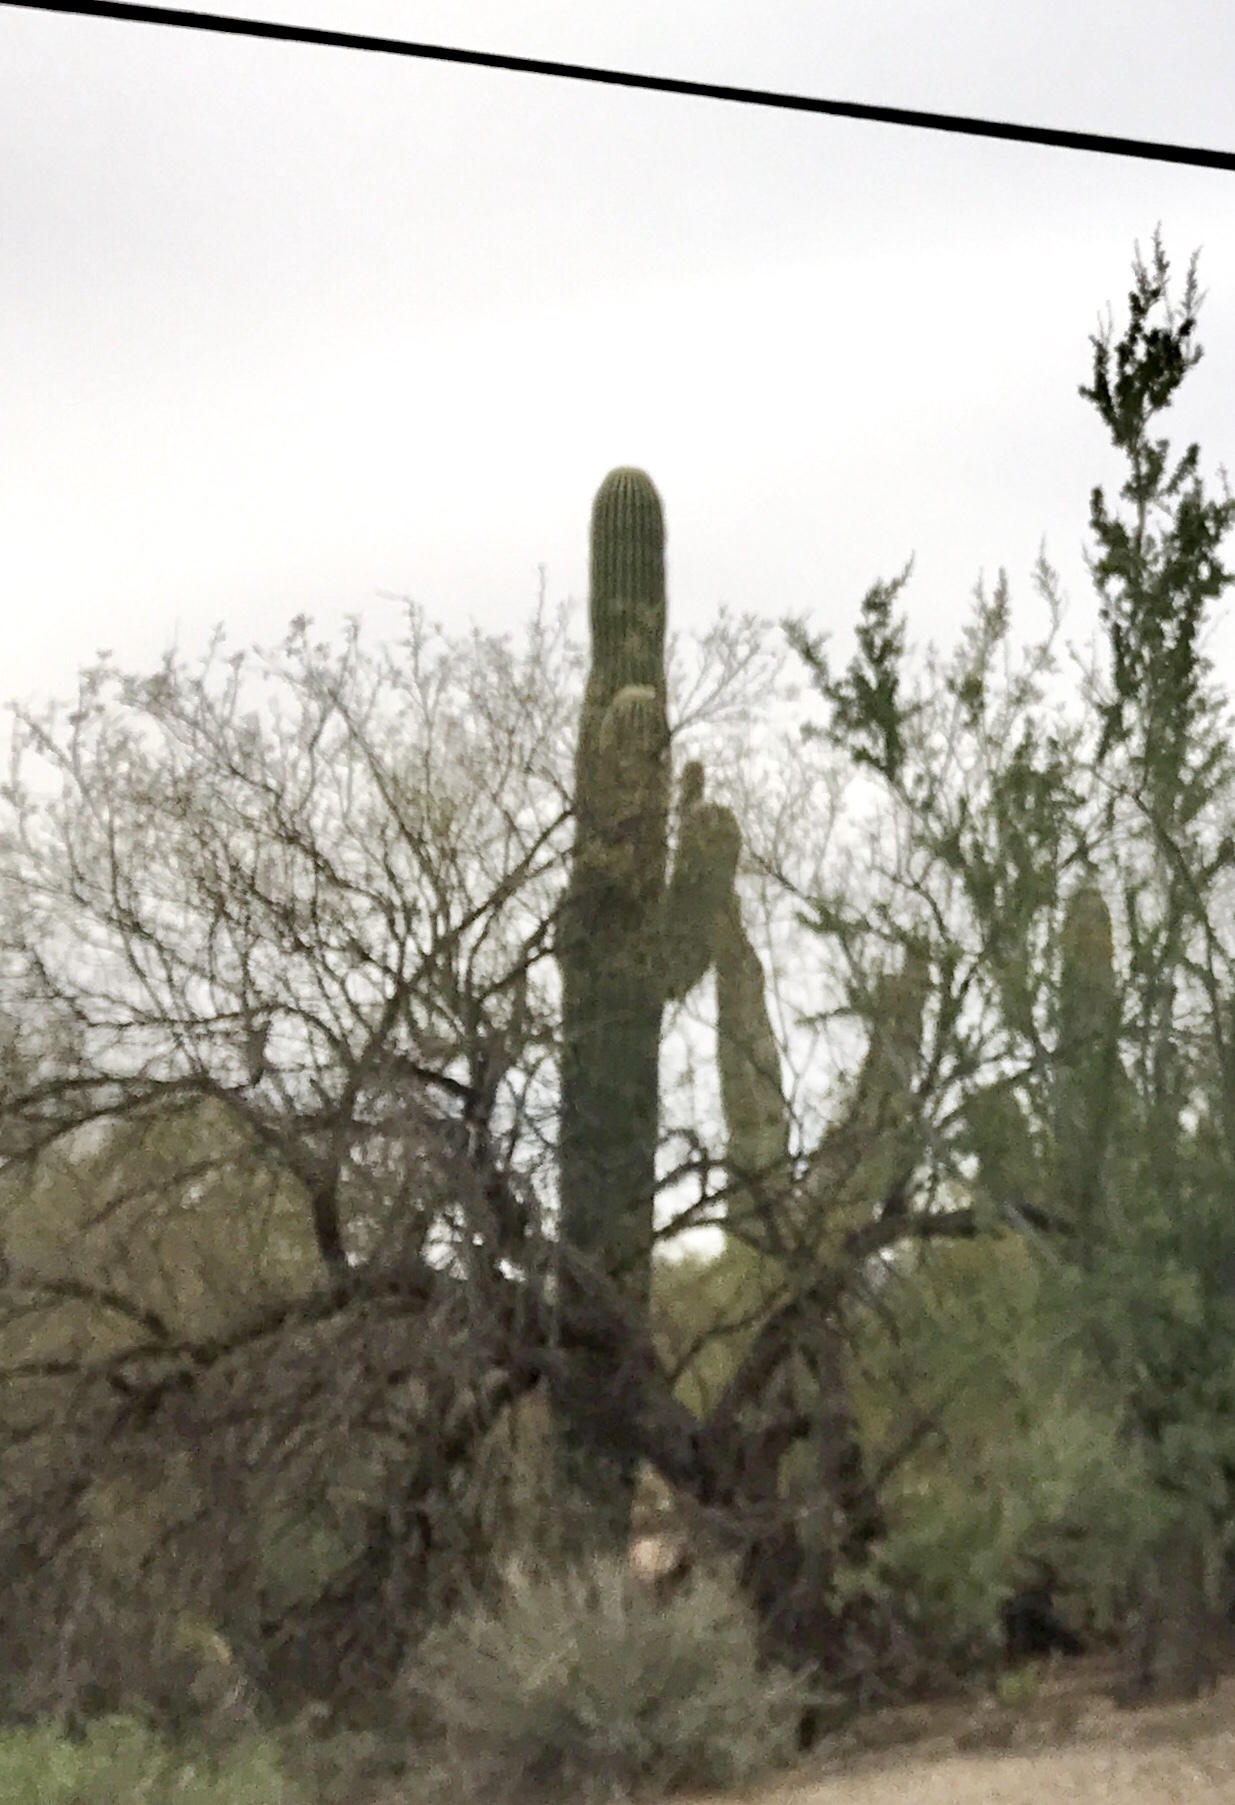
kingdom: Plantae
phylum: Tracheophyta
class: Magnoliopsida
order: Caryophyllales
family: Cactaceae
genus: Carnegiea
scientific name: Carnegiea gigantea
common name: Saguaro
